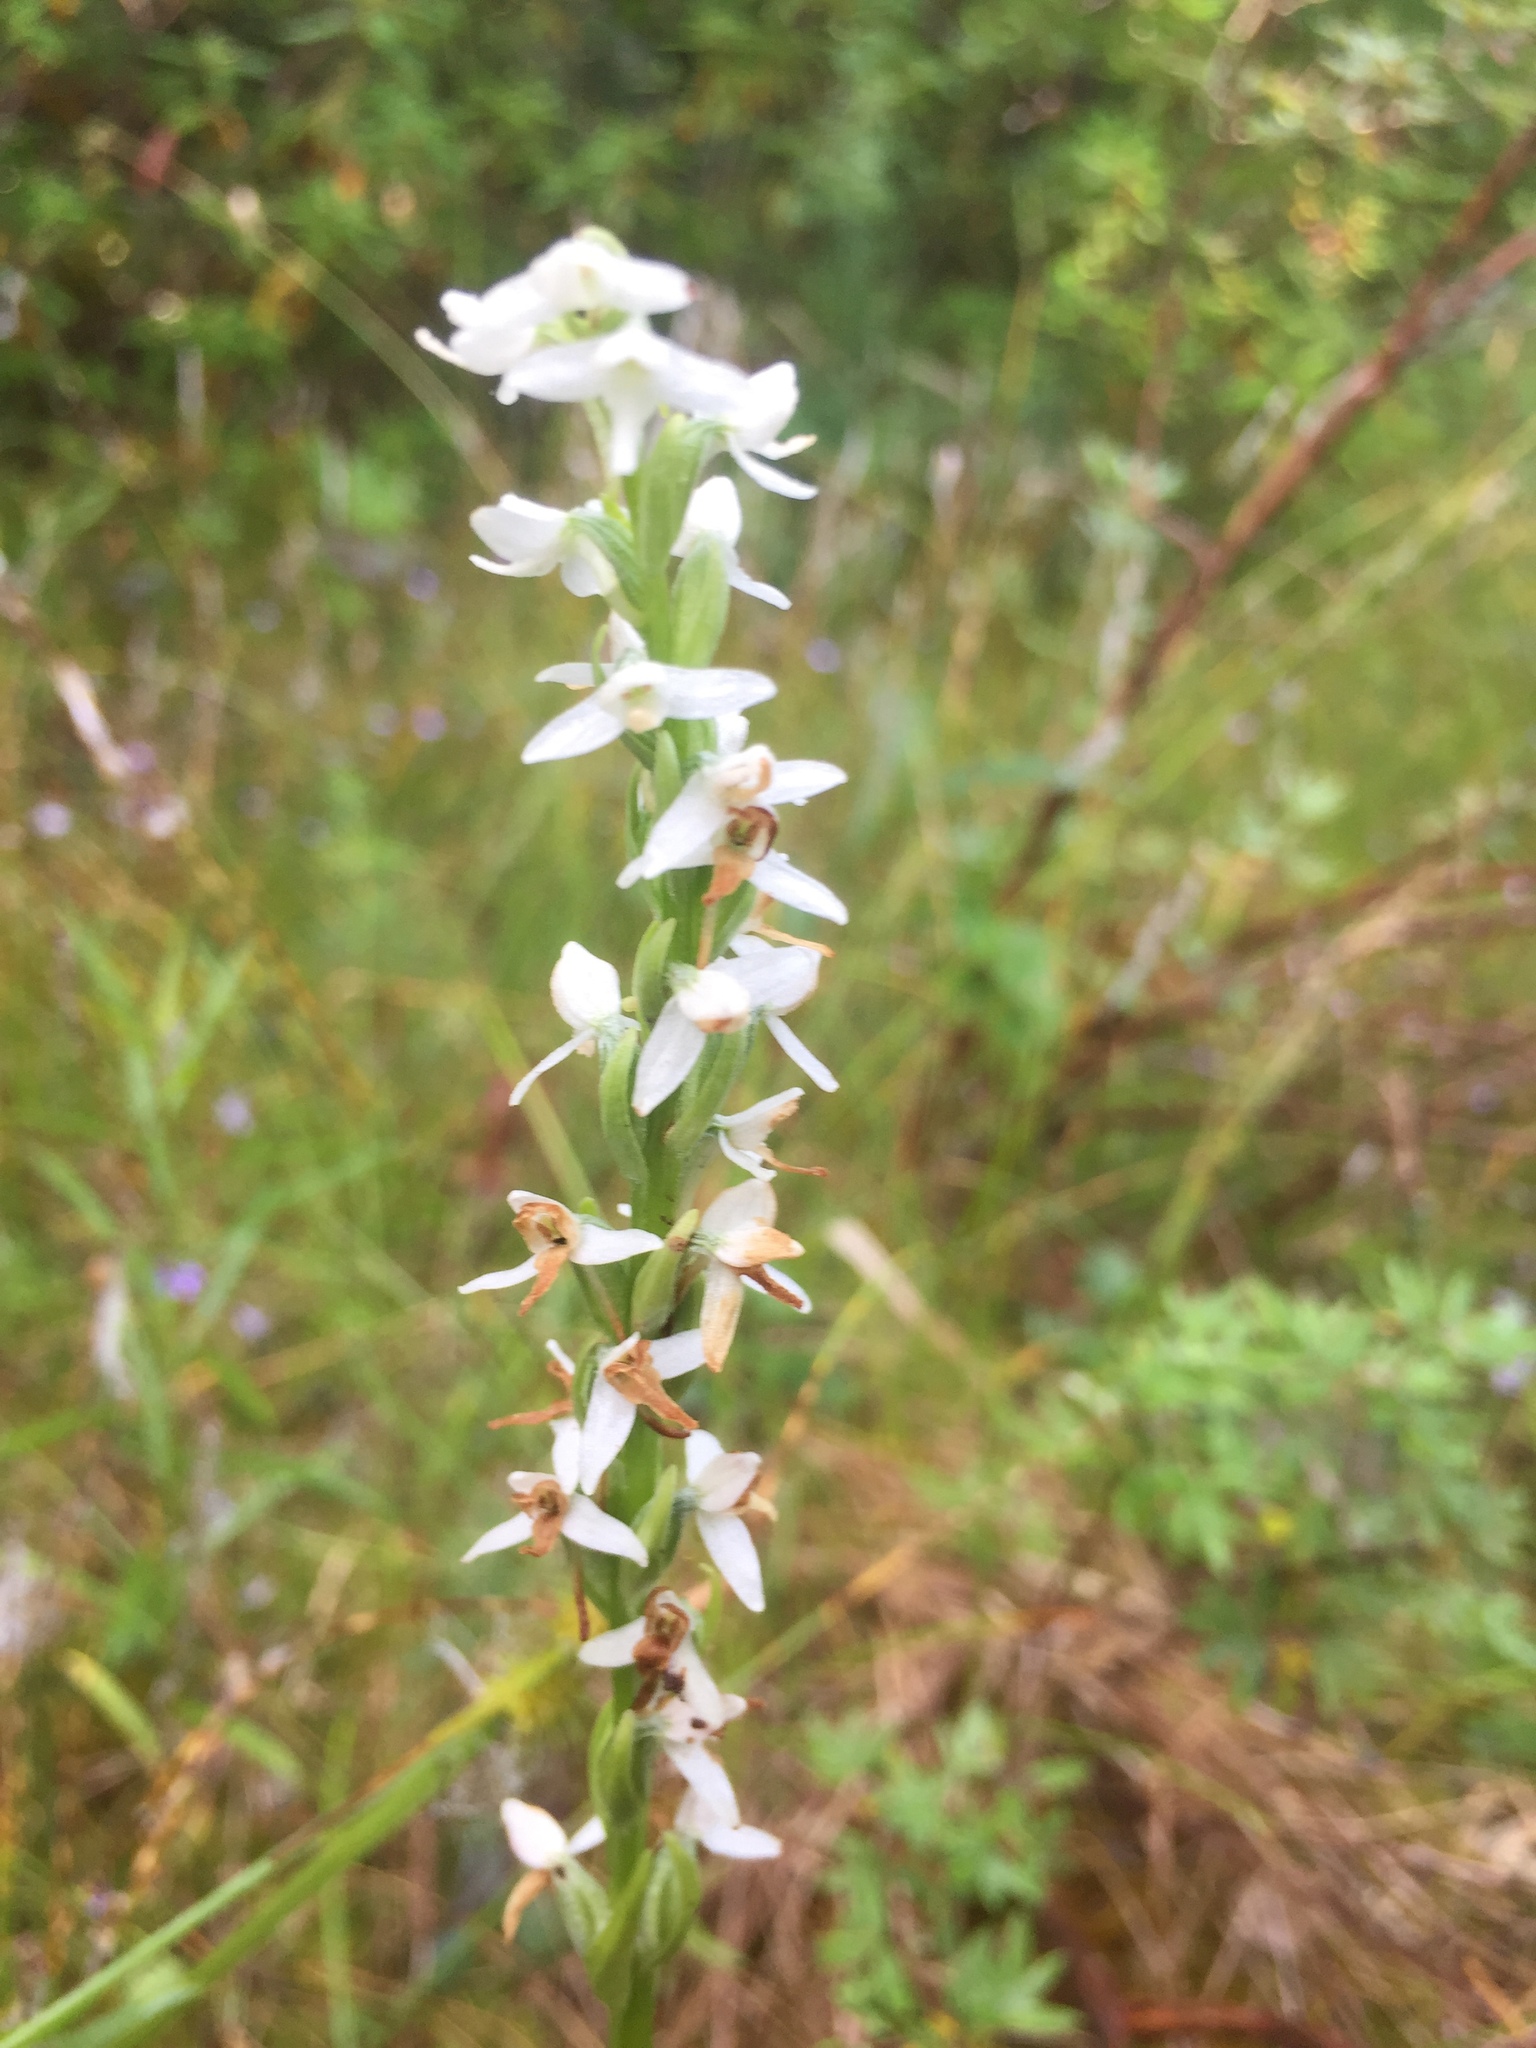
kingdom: Plantae
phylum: Tracheophyta
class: Liliopsida
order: Asparagales
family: Orchidaceae
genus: Platanthera
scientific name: Platanthera dilatata
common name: Bog candles
